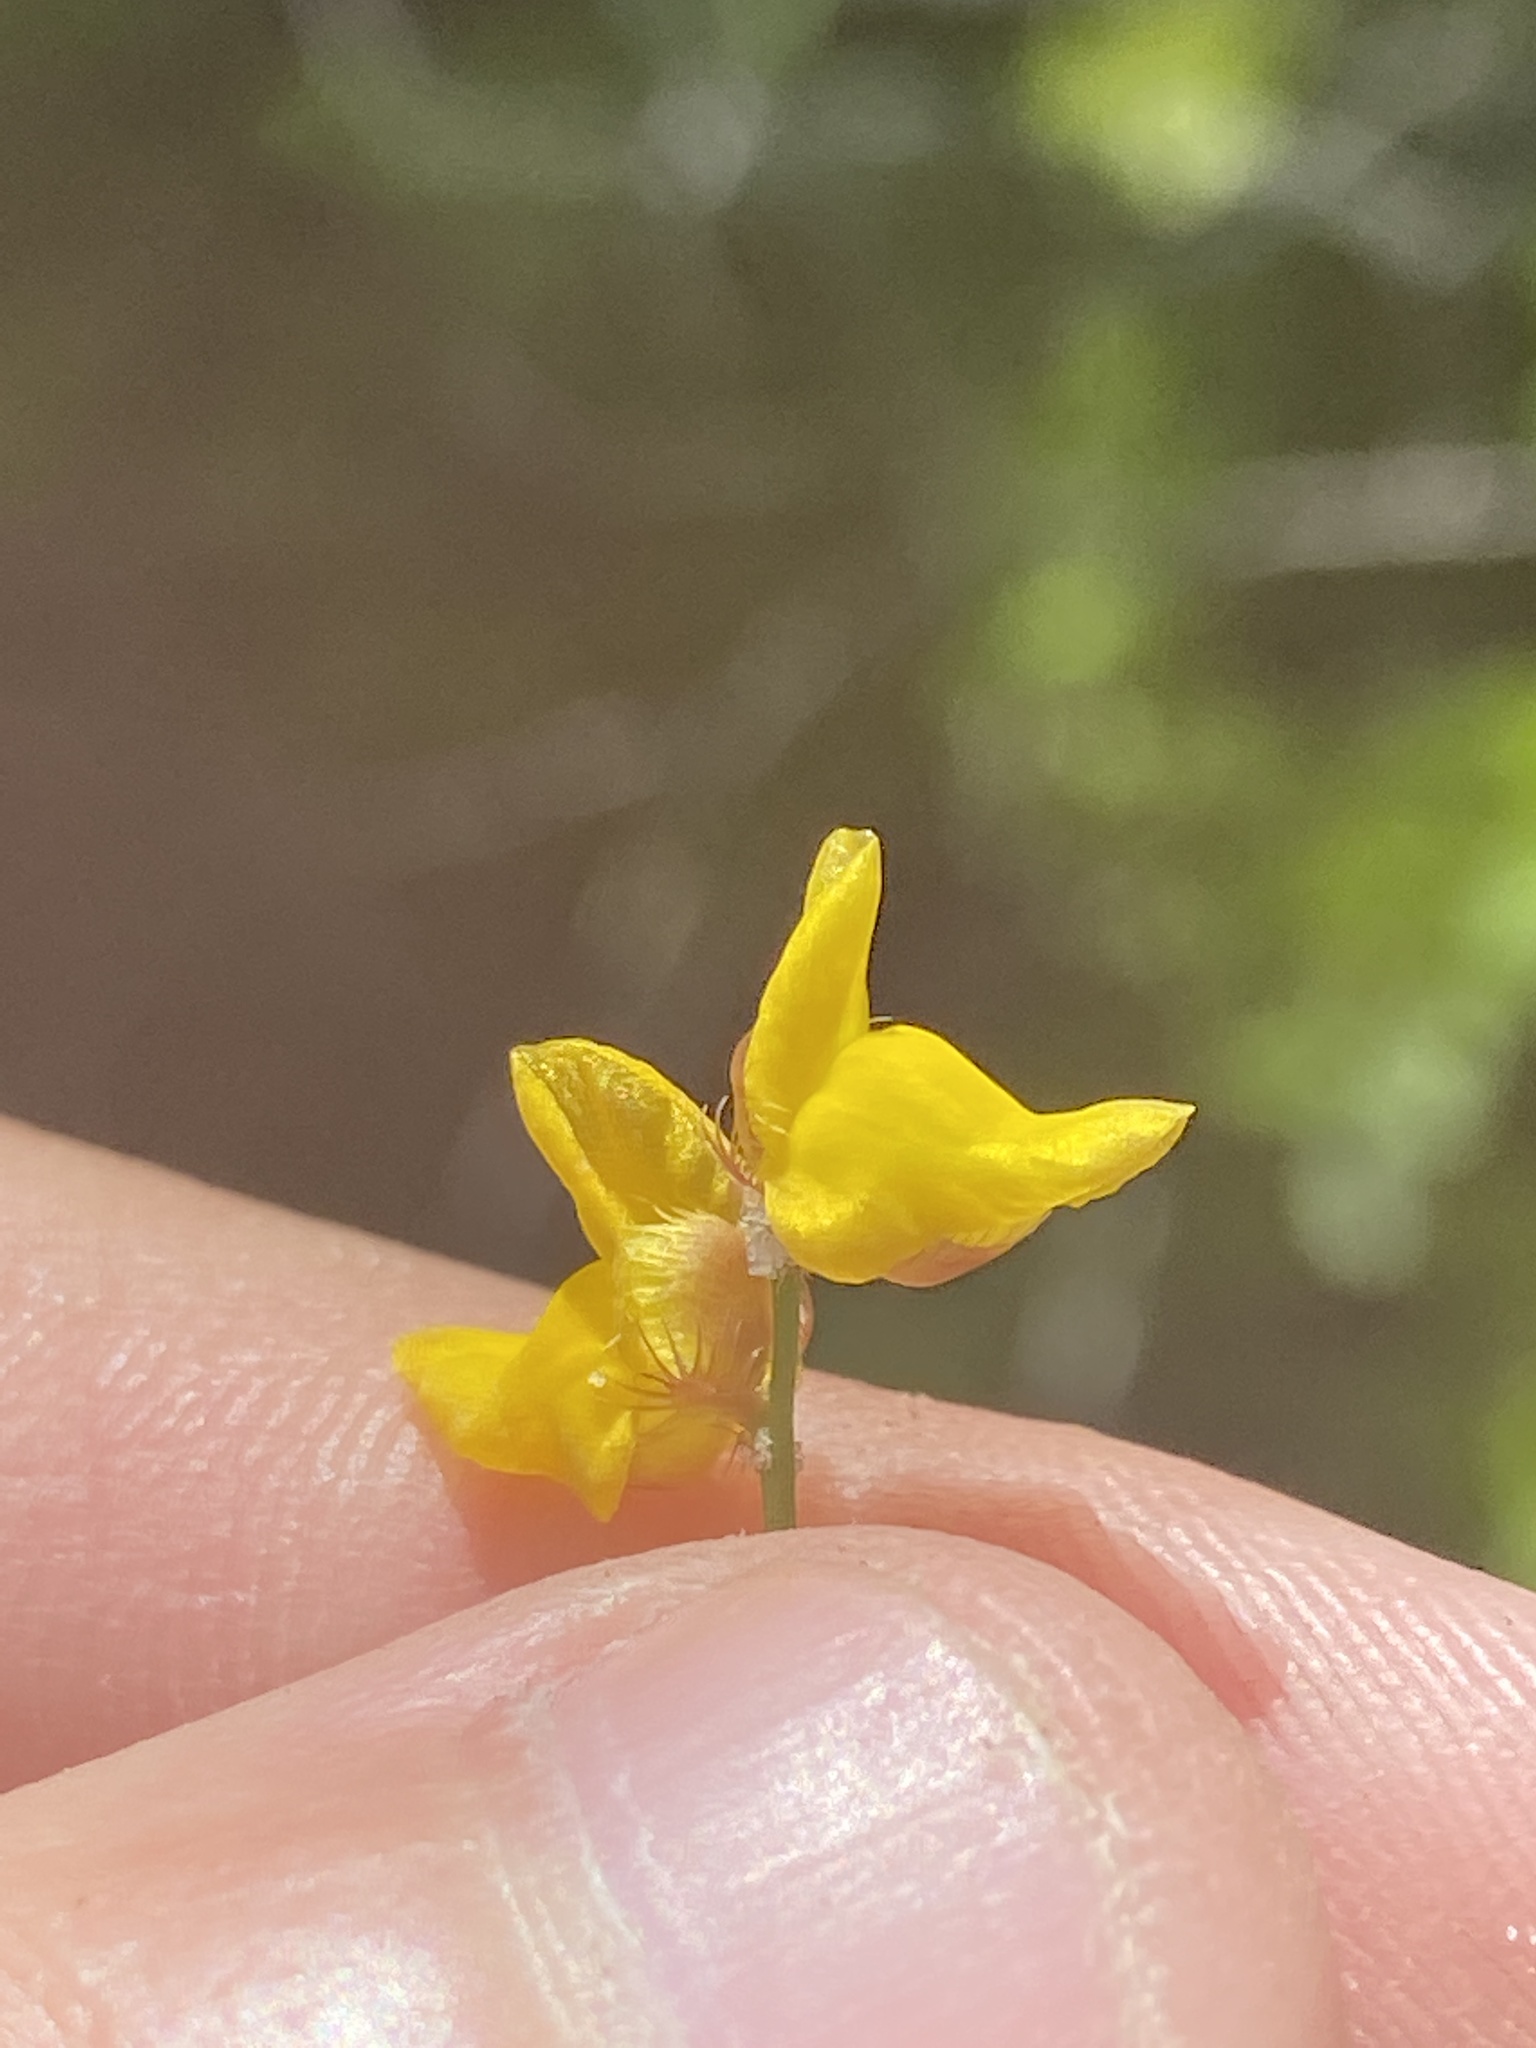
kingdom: Plantae
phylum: Tracheophyta
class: Magnoliopsida
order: Lamiales
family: Lentibulariaceae
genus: Utricularia
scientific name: Utricularia simulans
